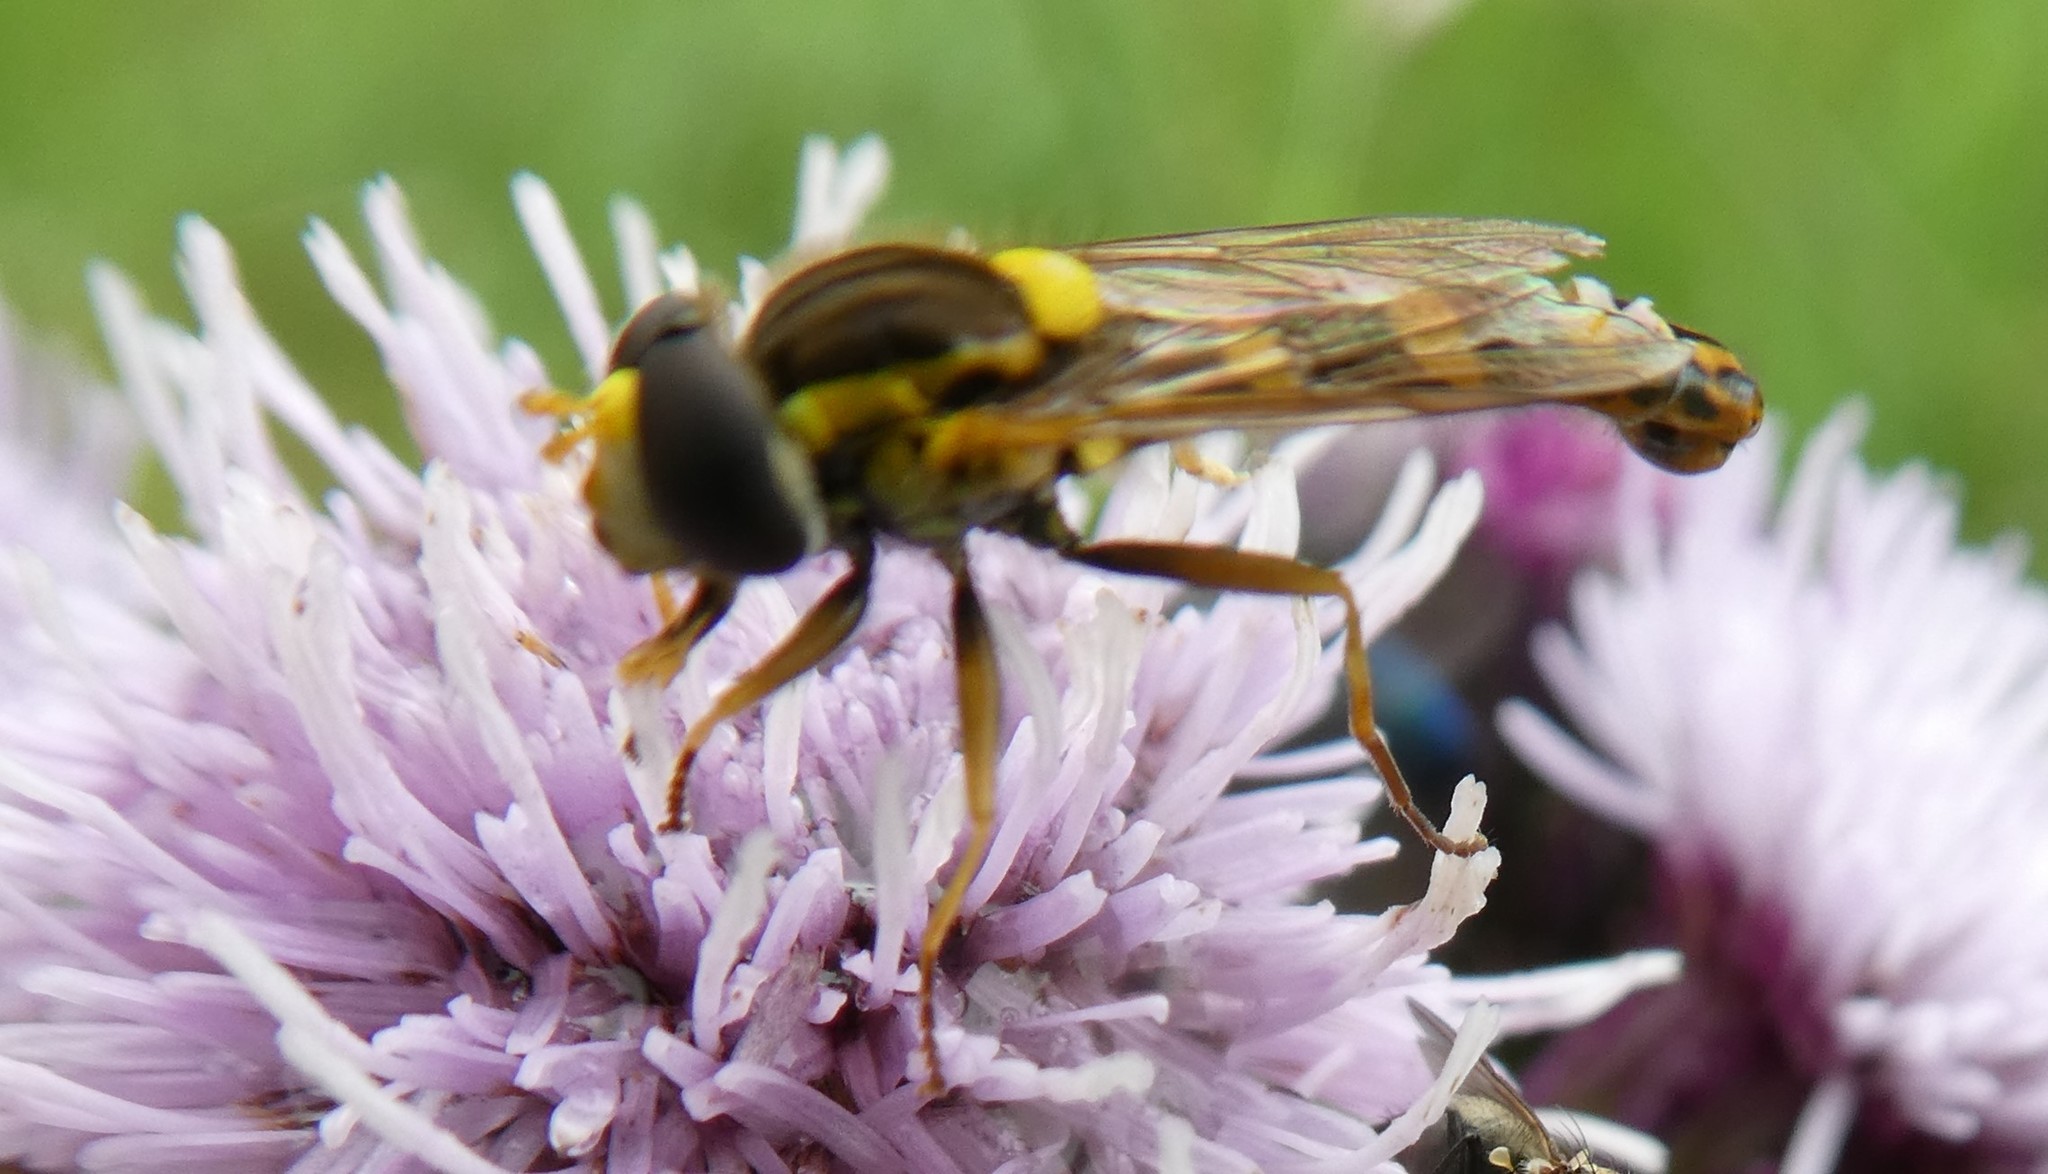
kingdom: Animalia
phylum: Arthropoda
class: Insecta
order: Diptera
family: Syrphidae
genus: Sphaerophoria
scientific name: Sphaerophoria scripta
